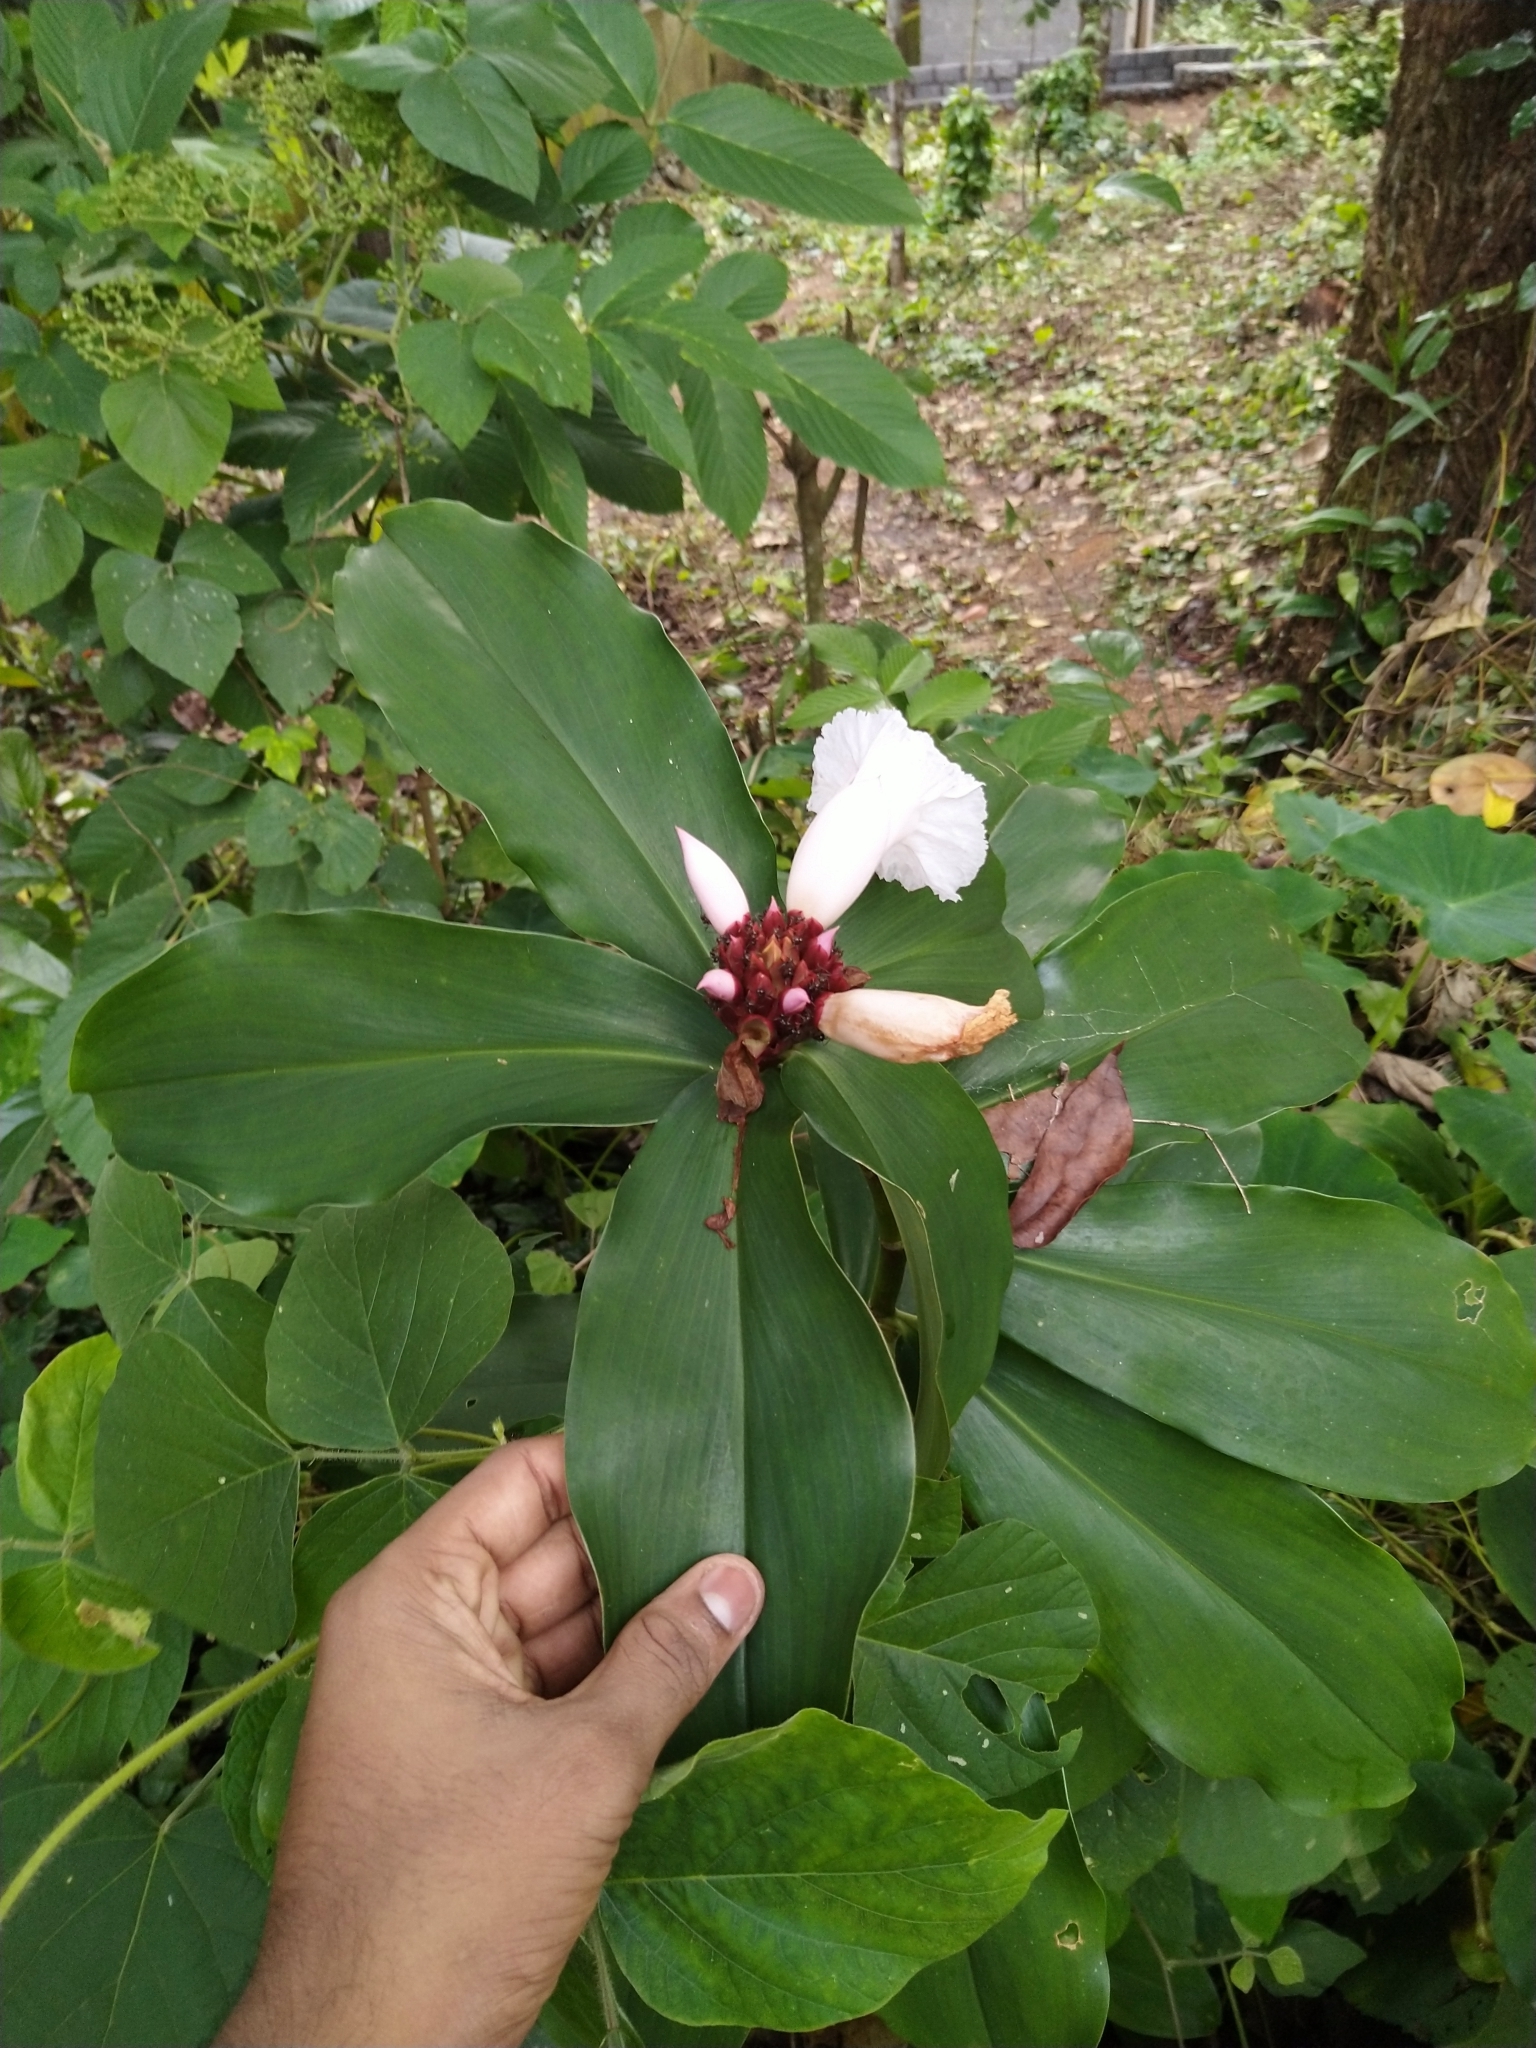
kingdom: Plantae
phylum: Tracheophyta
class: Liliopsida
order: Zingiberales
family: Costaceae
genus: Hellenia
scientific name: Hellenia speciosa
